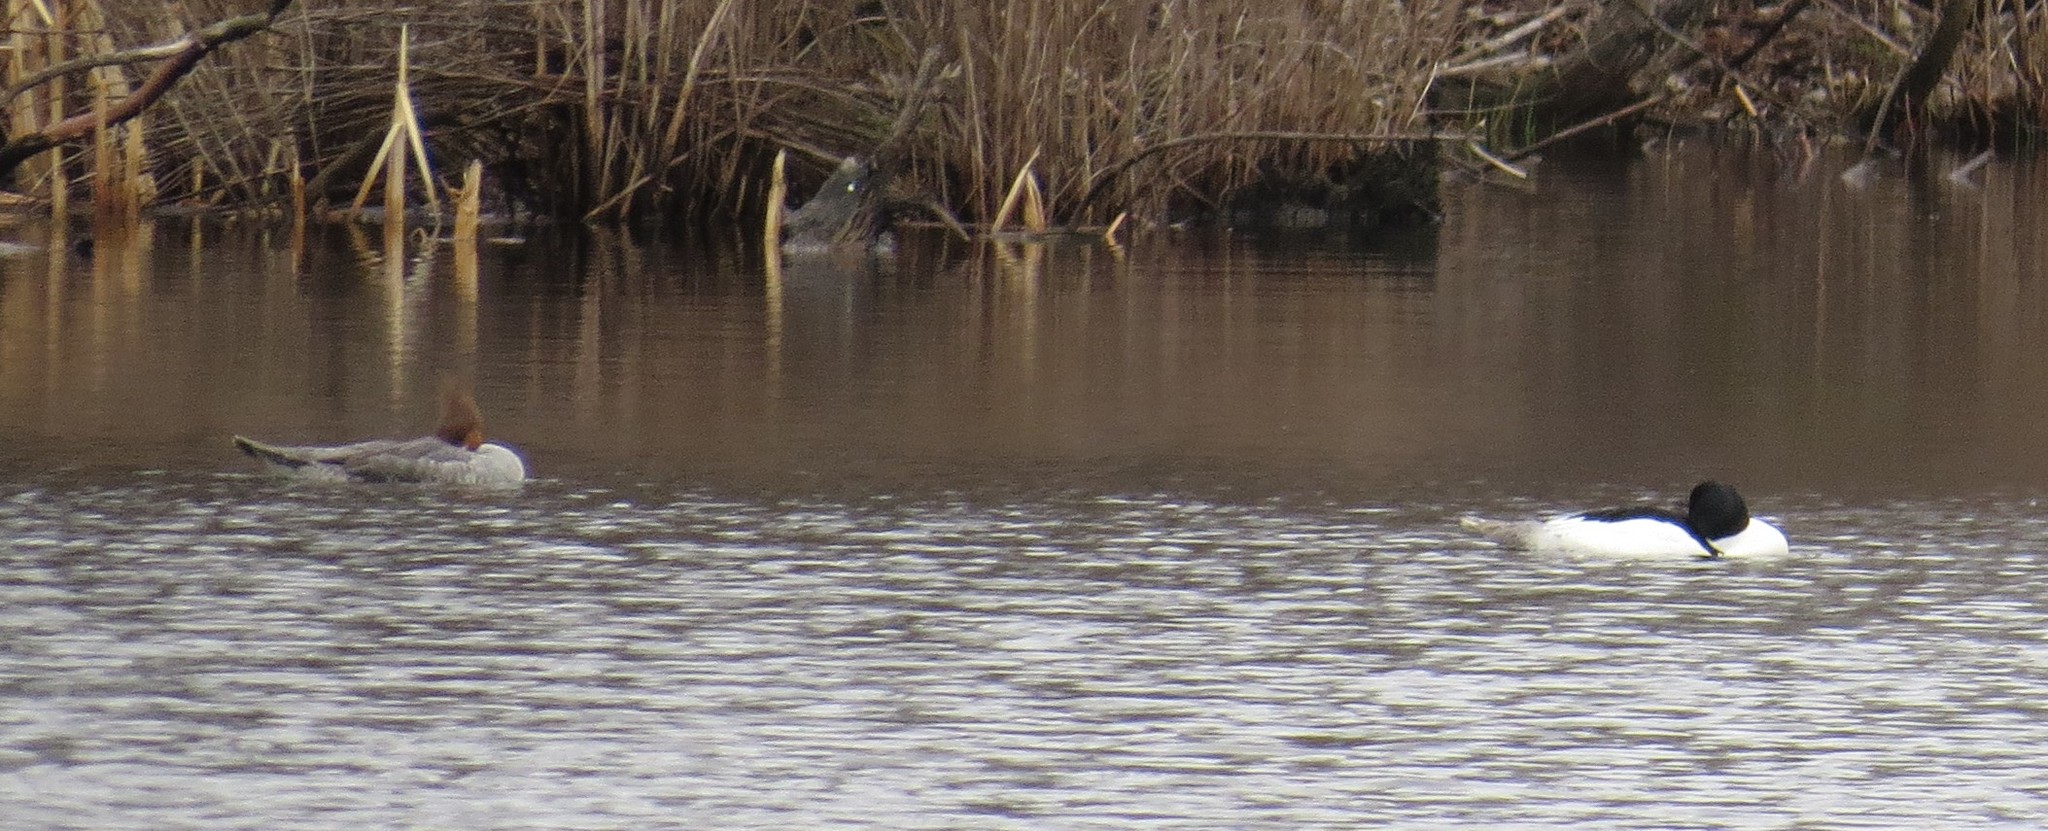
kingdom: Animalia
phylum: Chordata
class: Aves
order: Anseriformes
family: Anatidae
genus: Mergus
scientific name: Mergus merganser
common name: Common merganser
